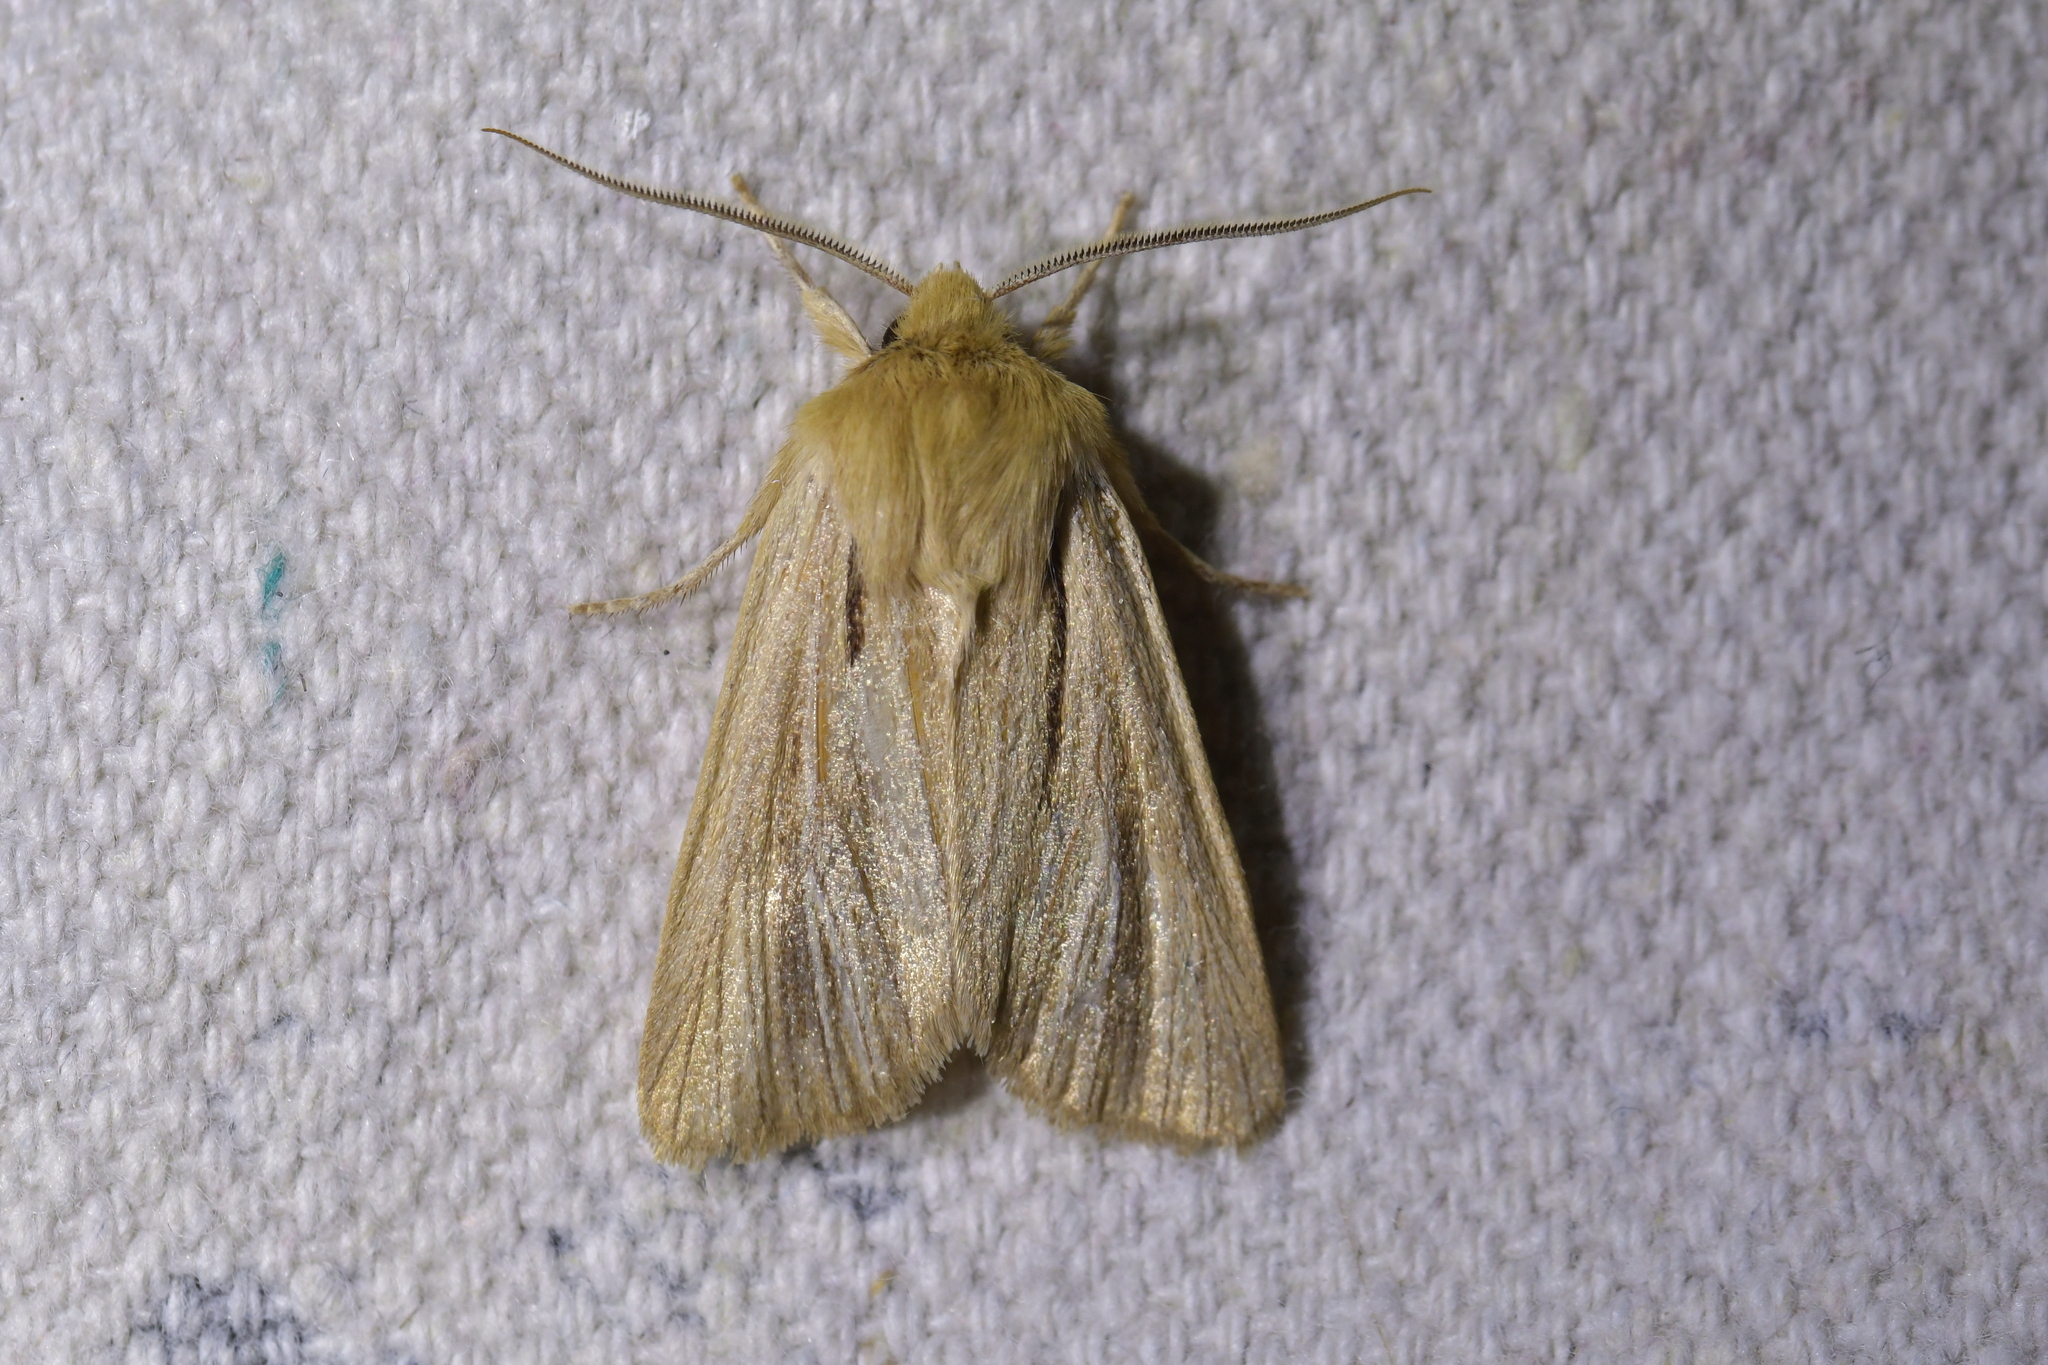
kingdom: Animalia
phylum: Arthropoda
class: Insecta
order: Lepidoptera
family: Noctuidae
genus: Ichneutica
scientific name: Ichneutica
